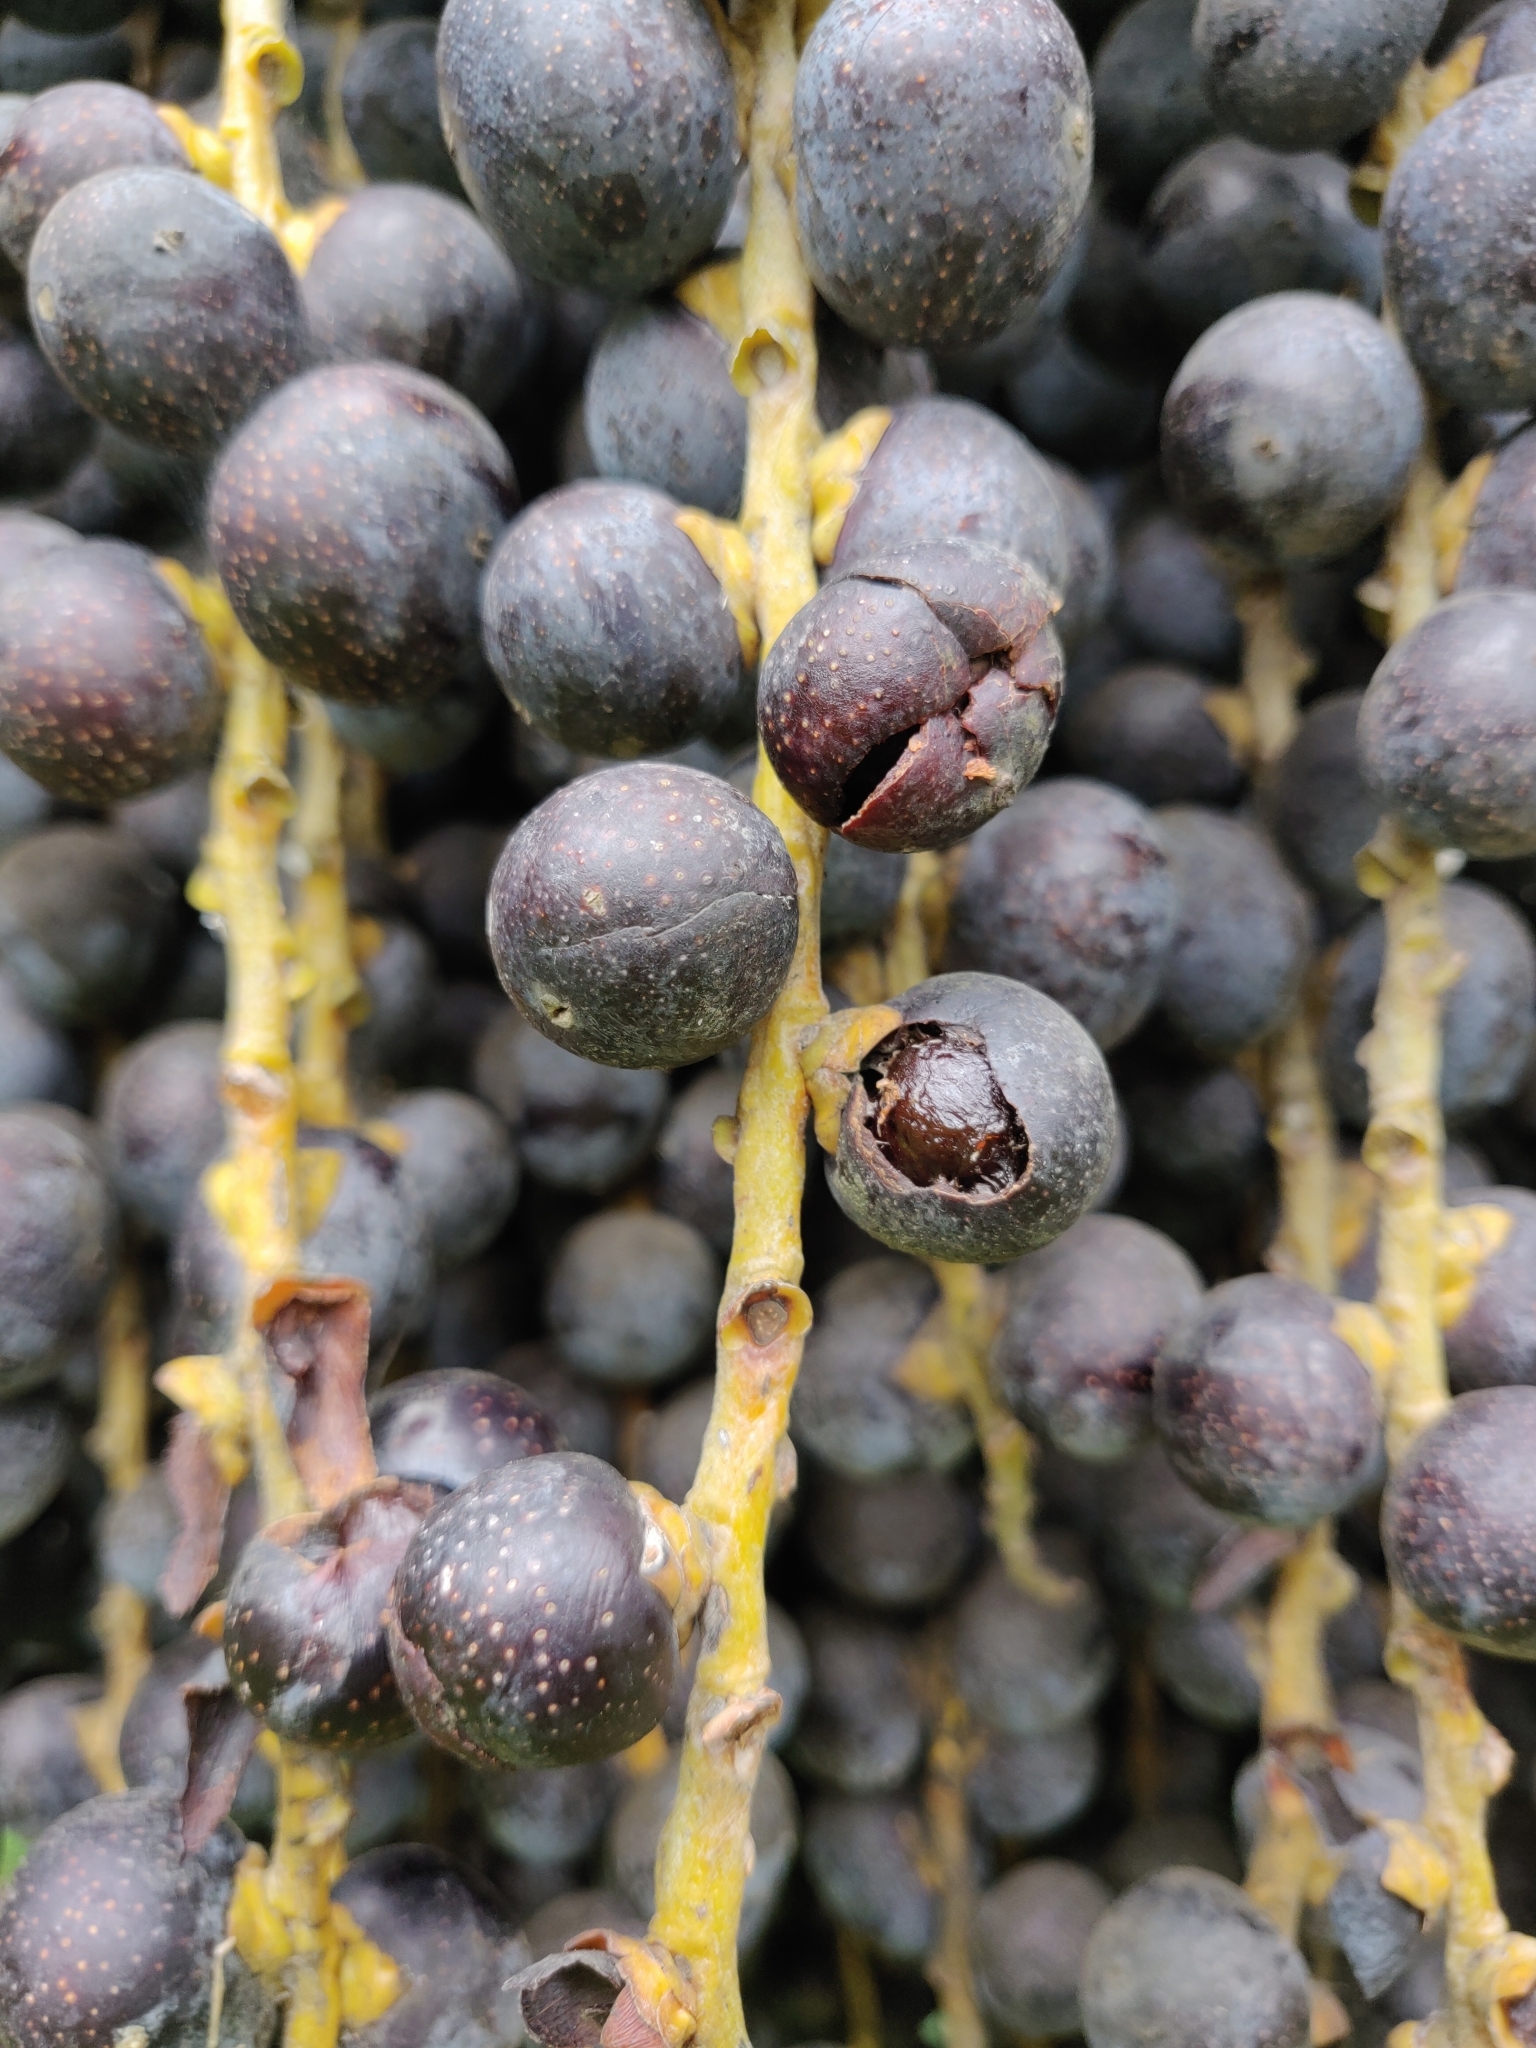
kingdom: Plantae
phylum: Tracheophyta
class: Liliopsida
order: Arecales
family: Arecaceae
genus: Caryota
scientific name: Caryota urens
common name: Jaggery palm
